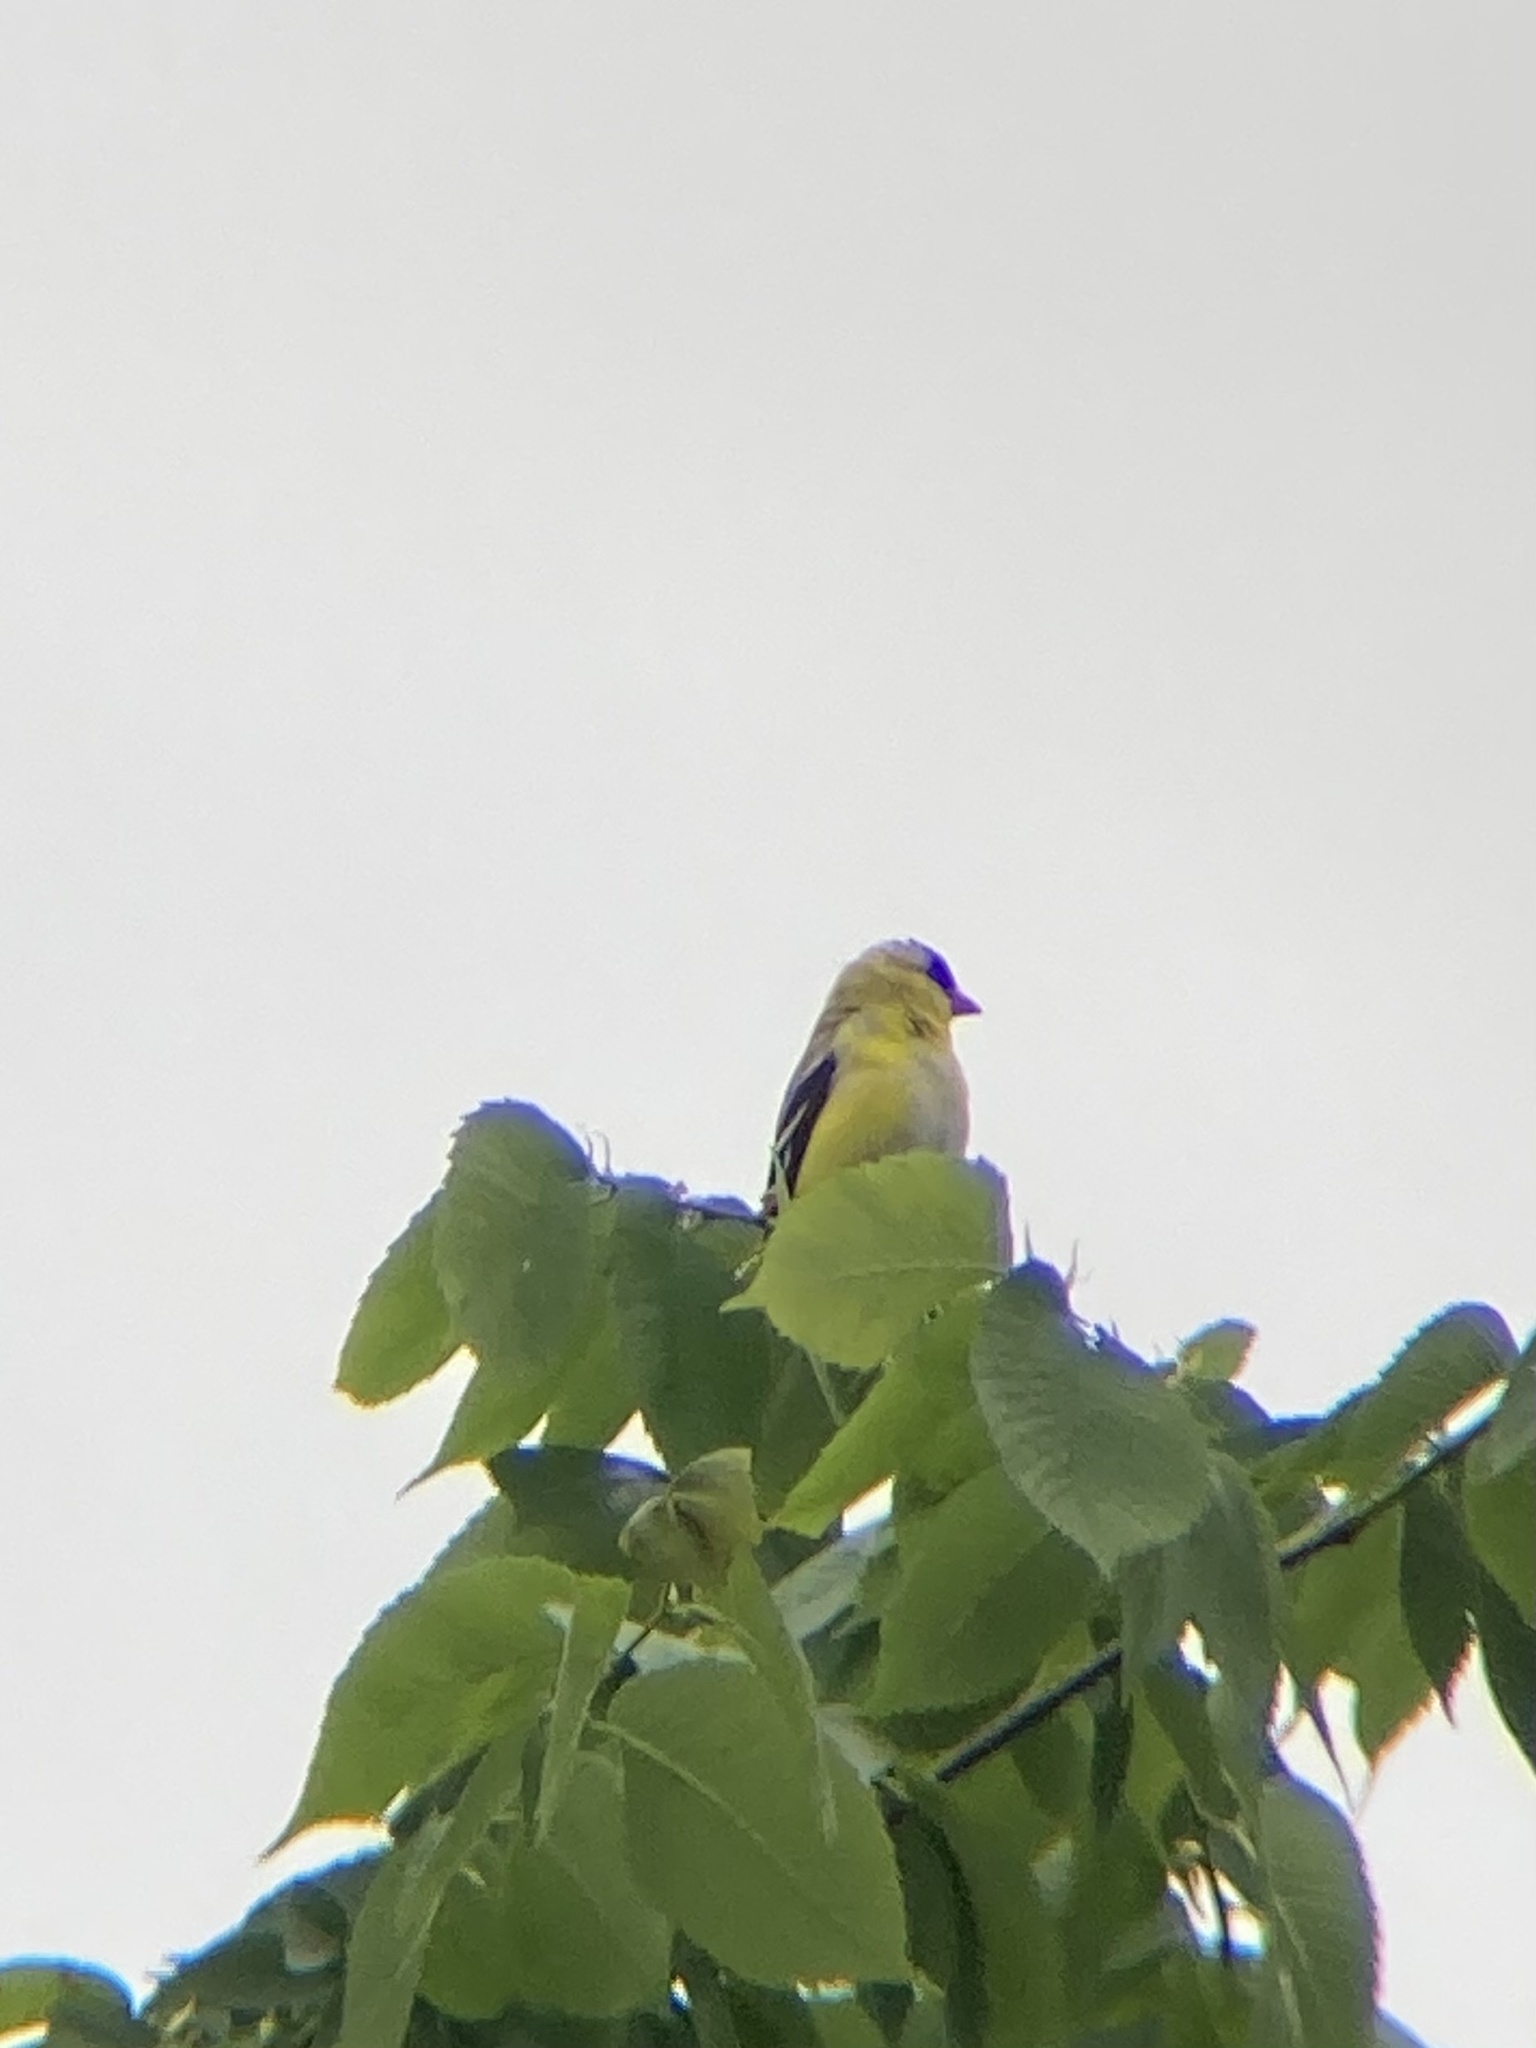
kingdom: Animalia
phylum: Chordata
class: Aves
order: Passeriformes
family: Fringillidae
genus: Spinus
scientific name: Spinus tristis
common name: American goldfinch
